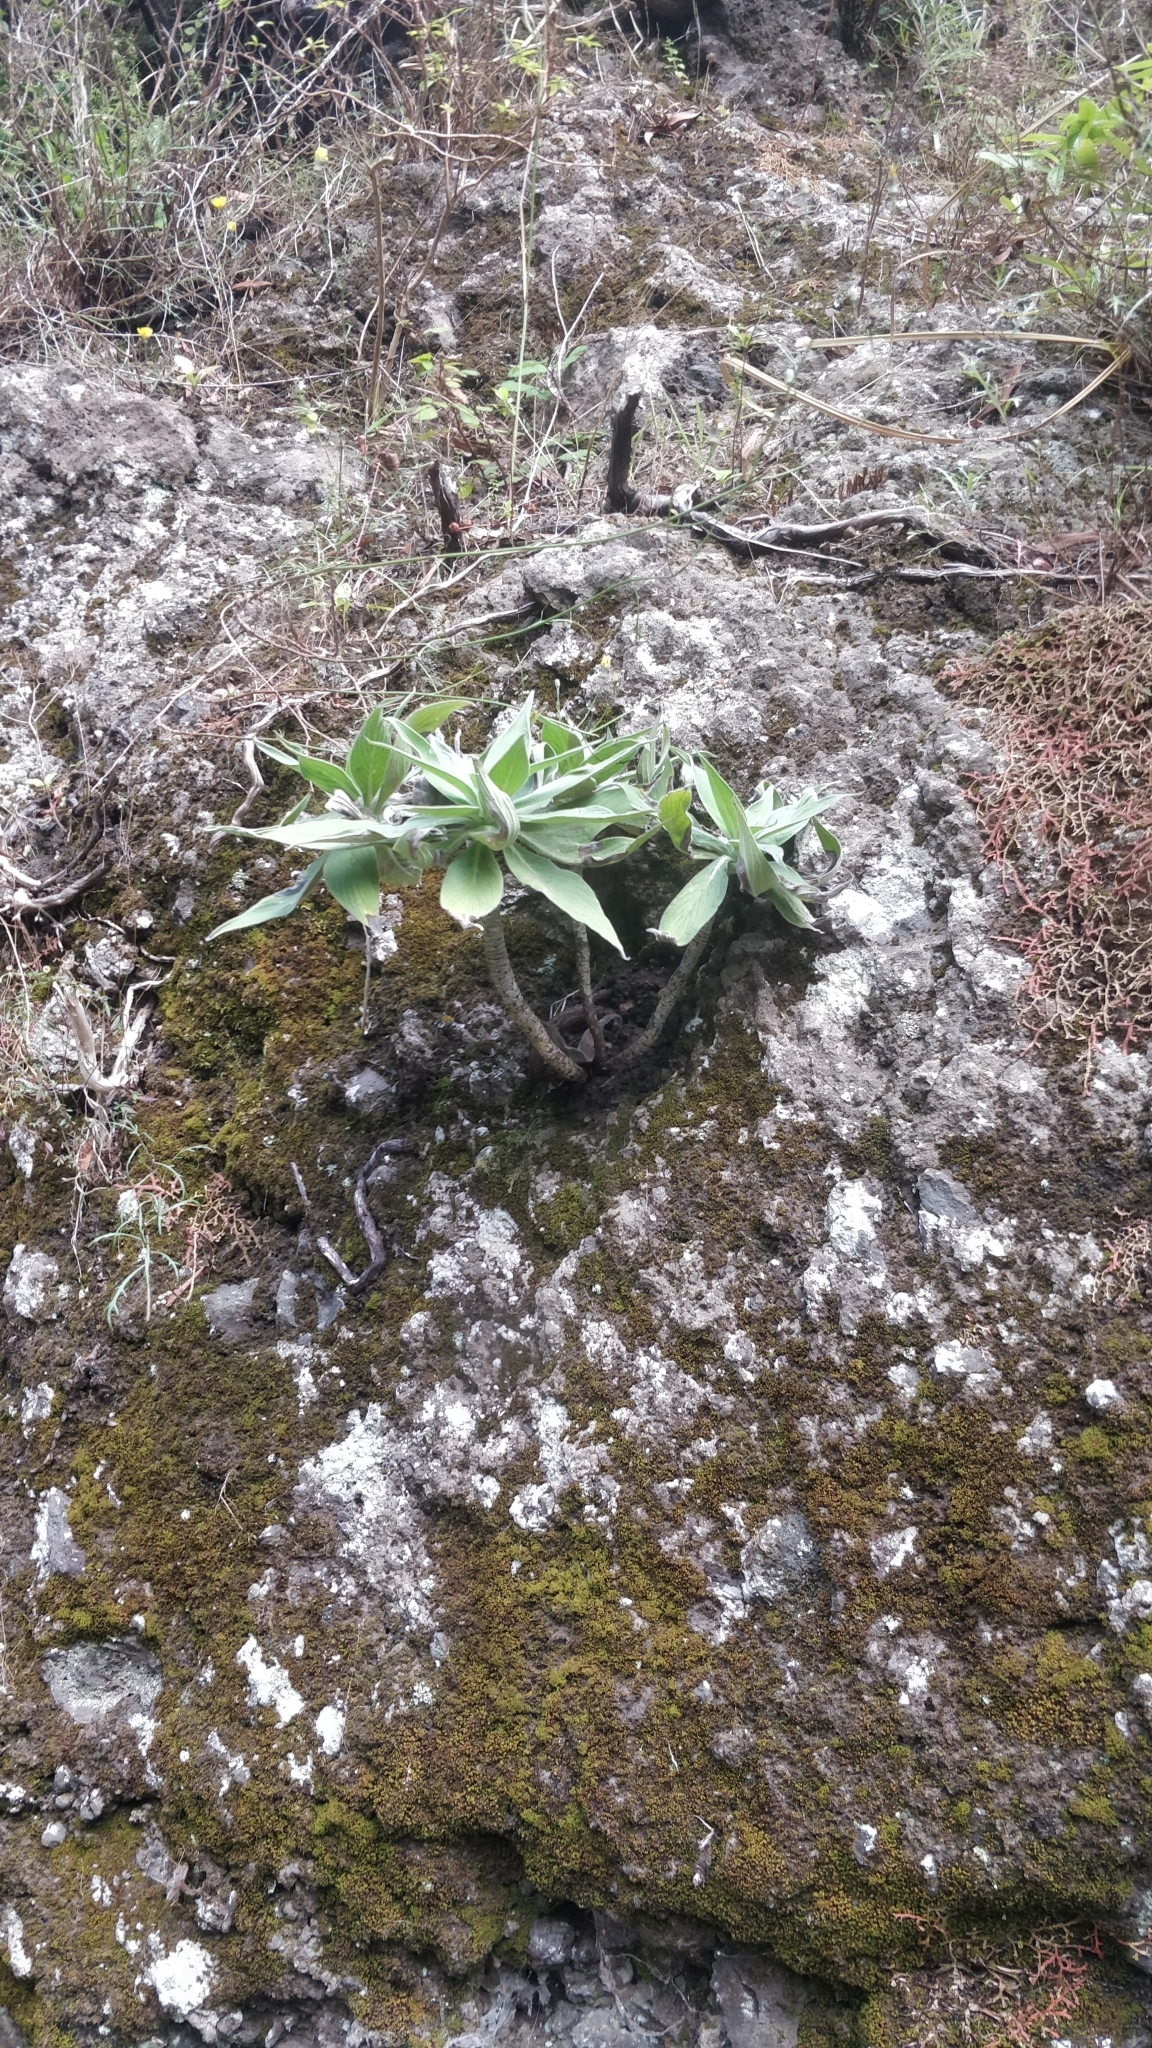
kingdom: Plantae
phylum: Tracheophyta
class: Magnoliopsida
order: Boraginales
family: Boraginaceae
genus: Echium
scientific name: Echium candicans
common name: Pride of madeira
